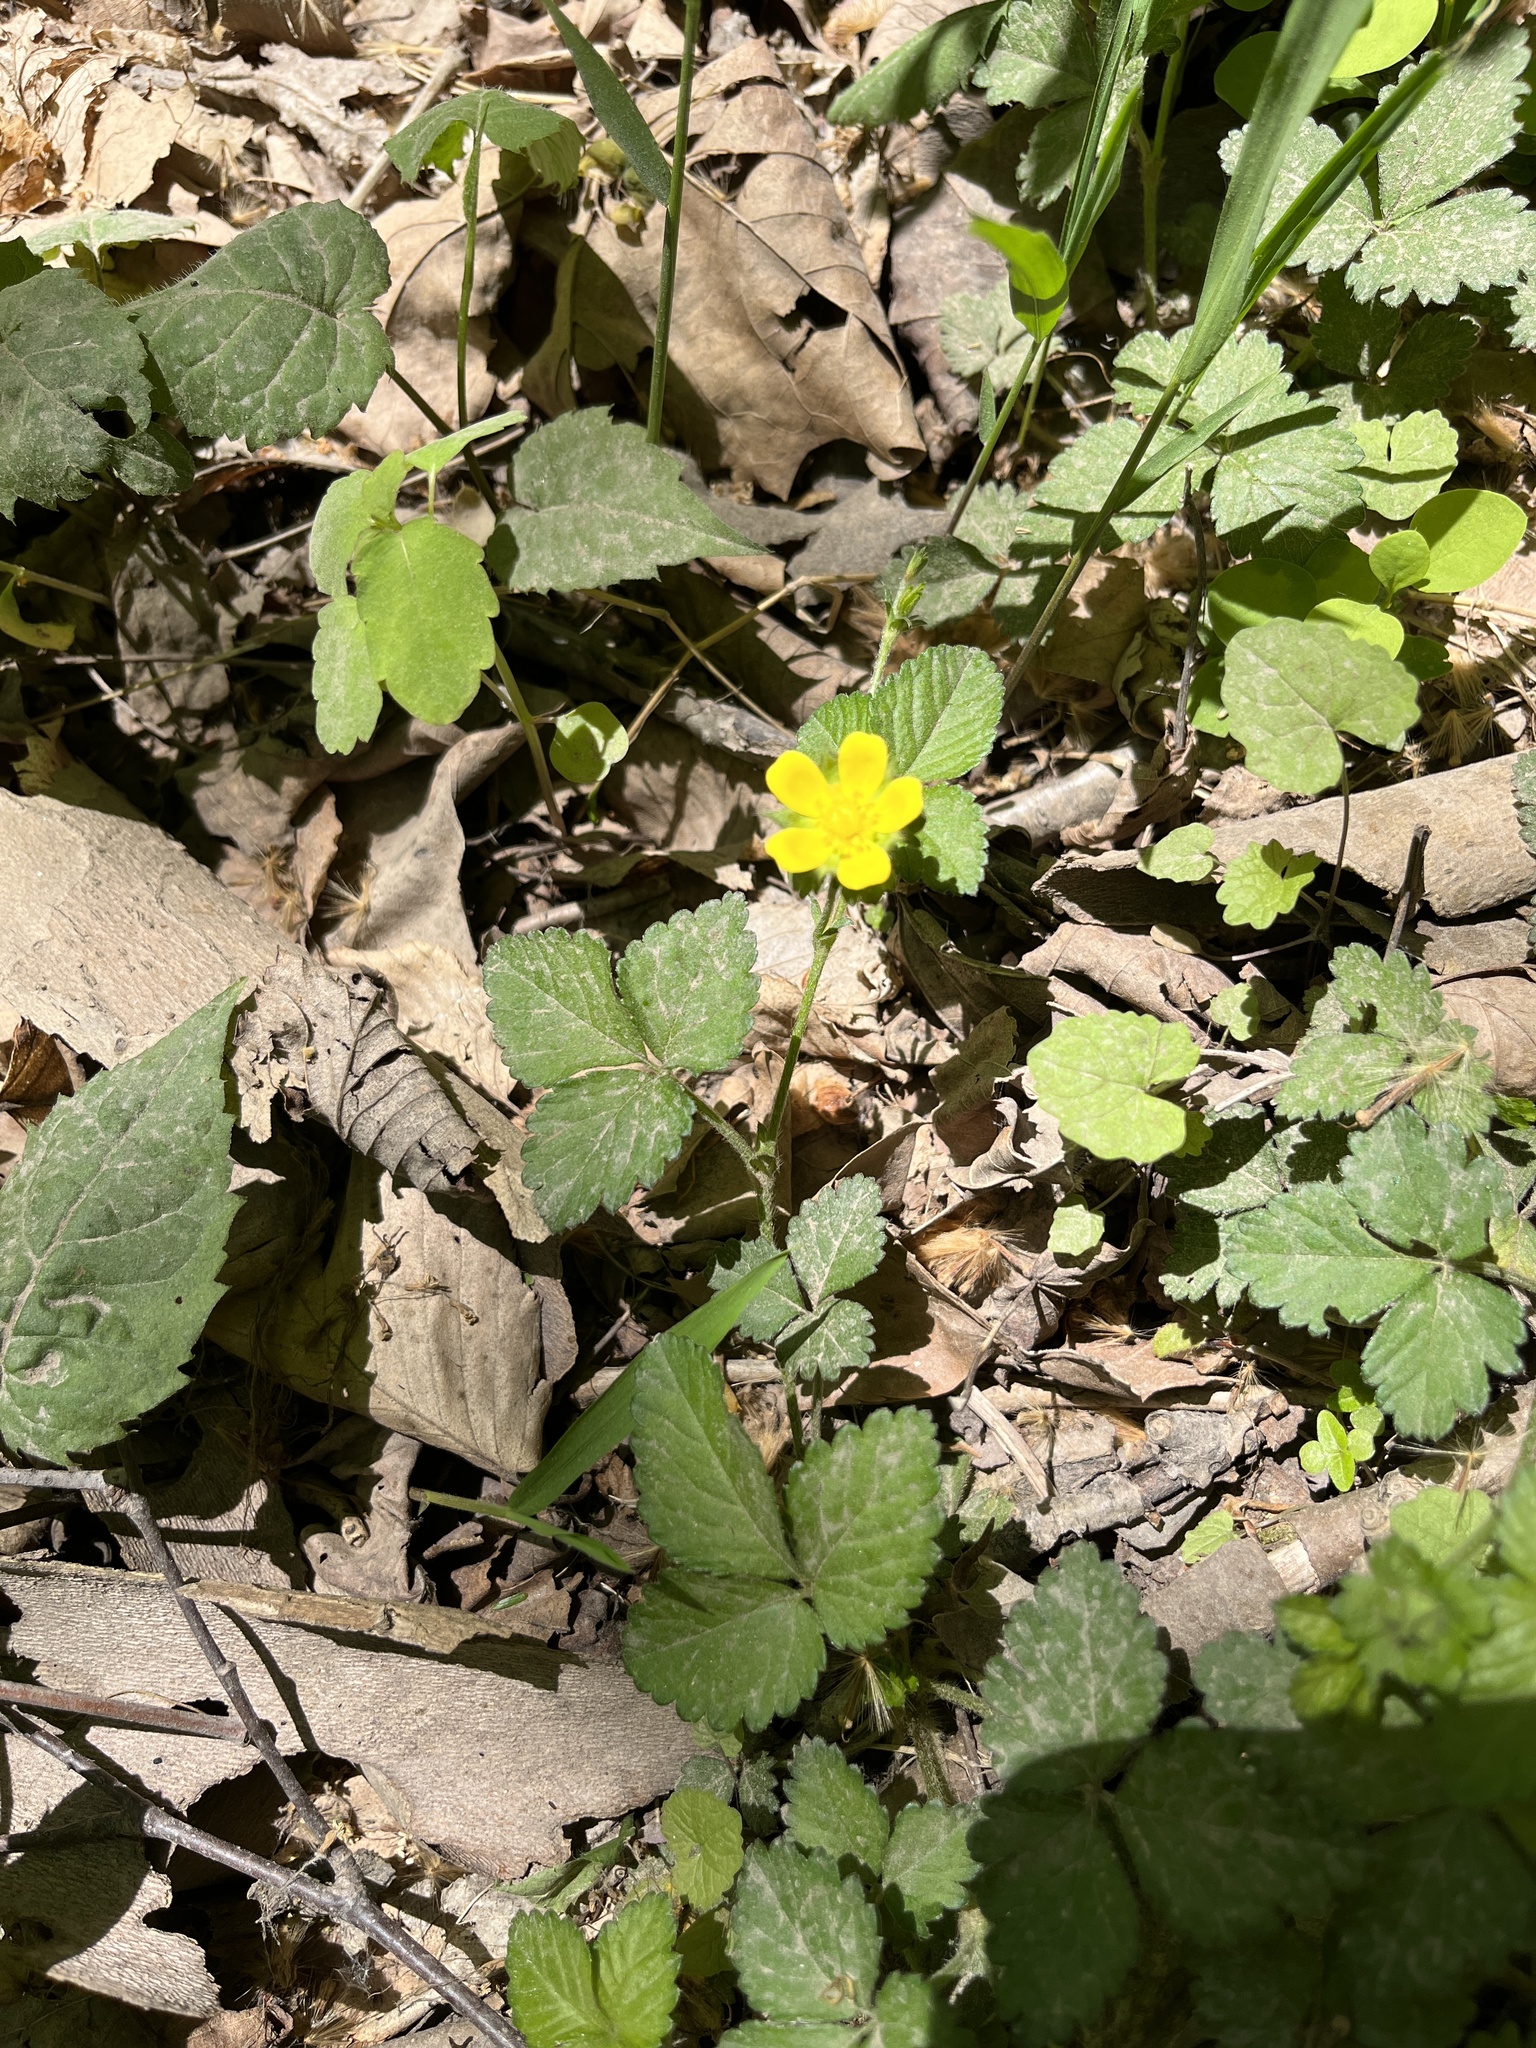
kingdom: Plantae
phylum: Tracheophyta
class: Magnoliopsida
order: Rosales
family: Rosaceae
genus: Potentilla
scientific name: Potentilla indica
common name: Yellow-flowered strawberry
